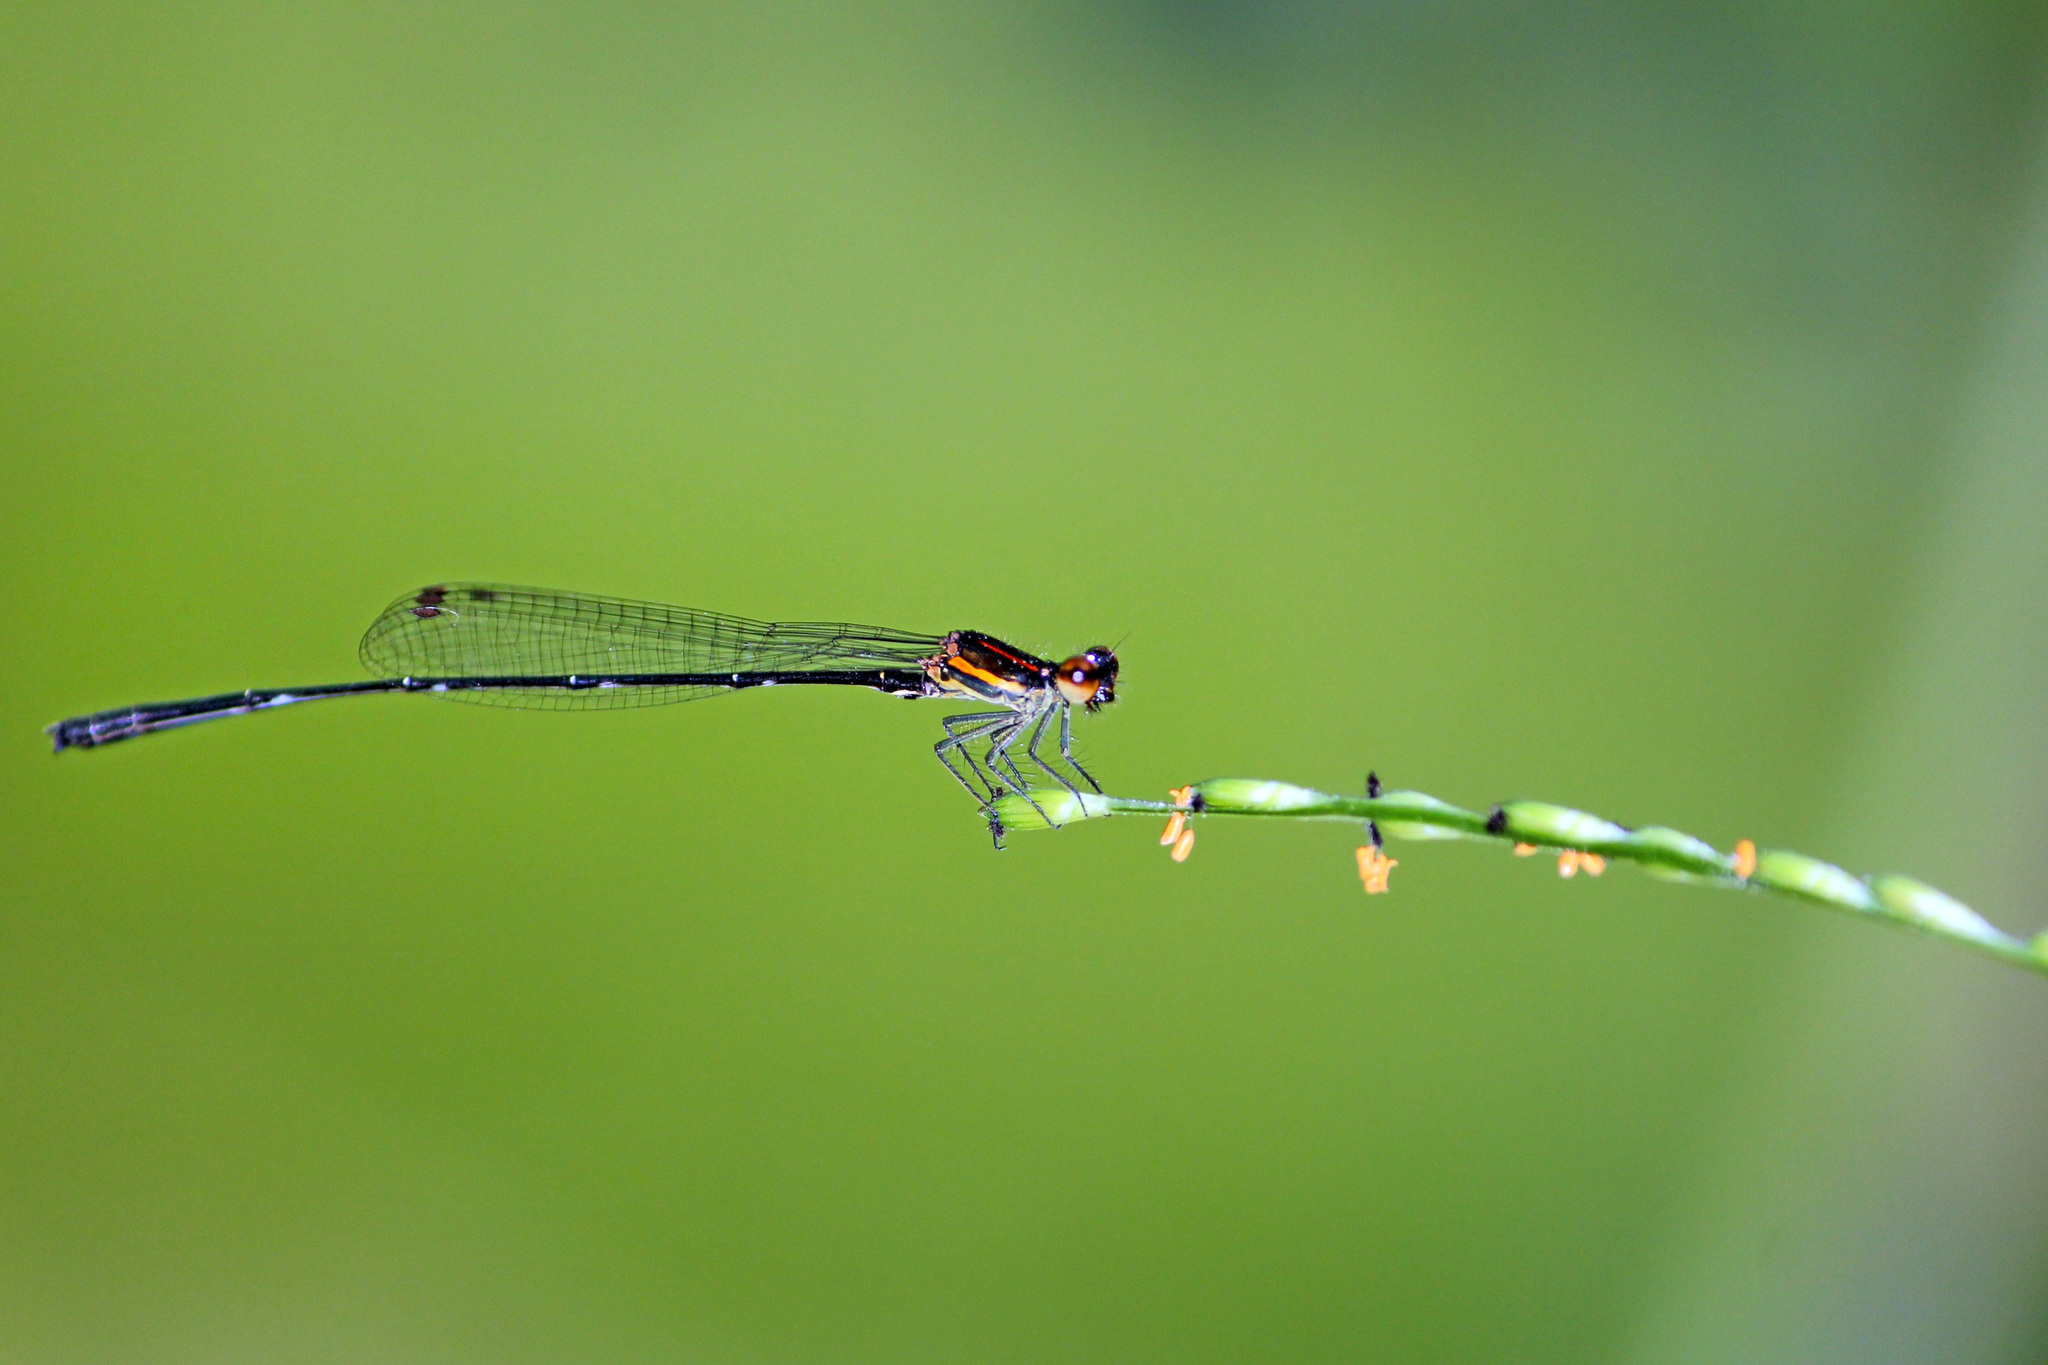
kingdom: Animalia
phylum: Arthropoda
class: Insecta
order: Odonata
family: Platycnemididae
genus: Prodasineura
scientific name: Prodasineura verticalis
